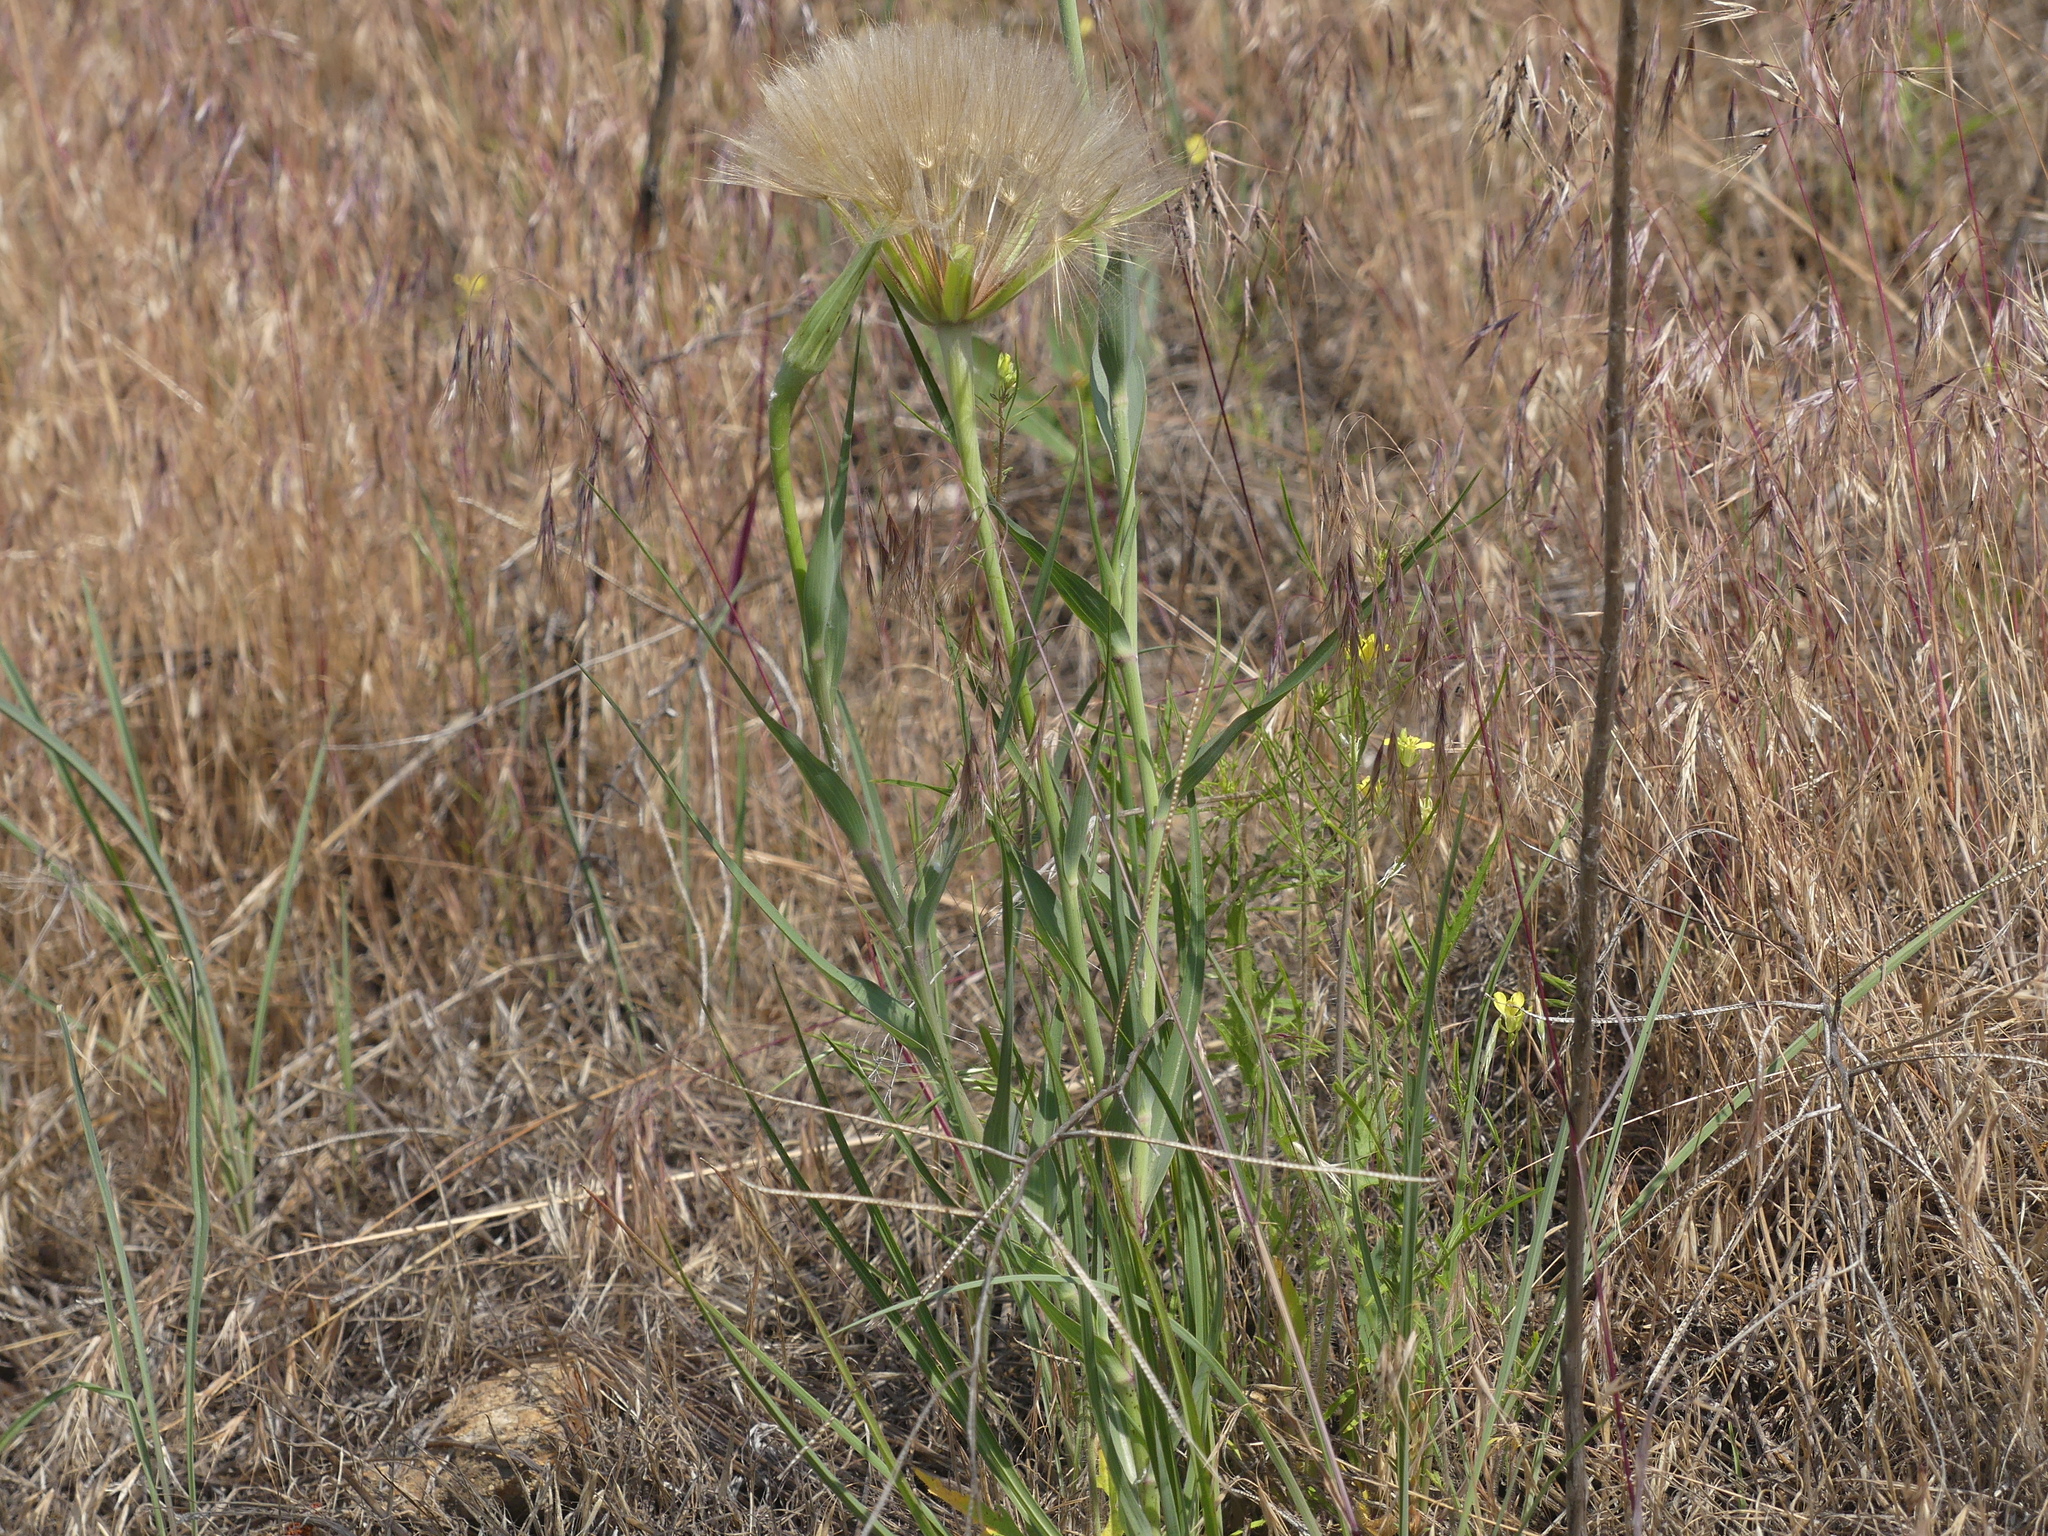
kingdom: Plantae
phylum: Tracheophyta
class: Magnoliopsida
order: Asterales
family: Asteraceae
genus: Tragopogon
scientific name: Tragopogon dubius
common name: Yellow salsify
